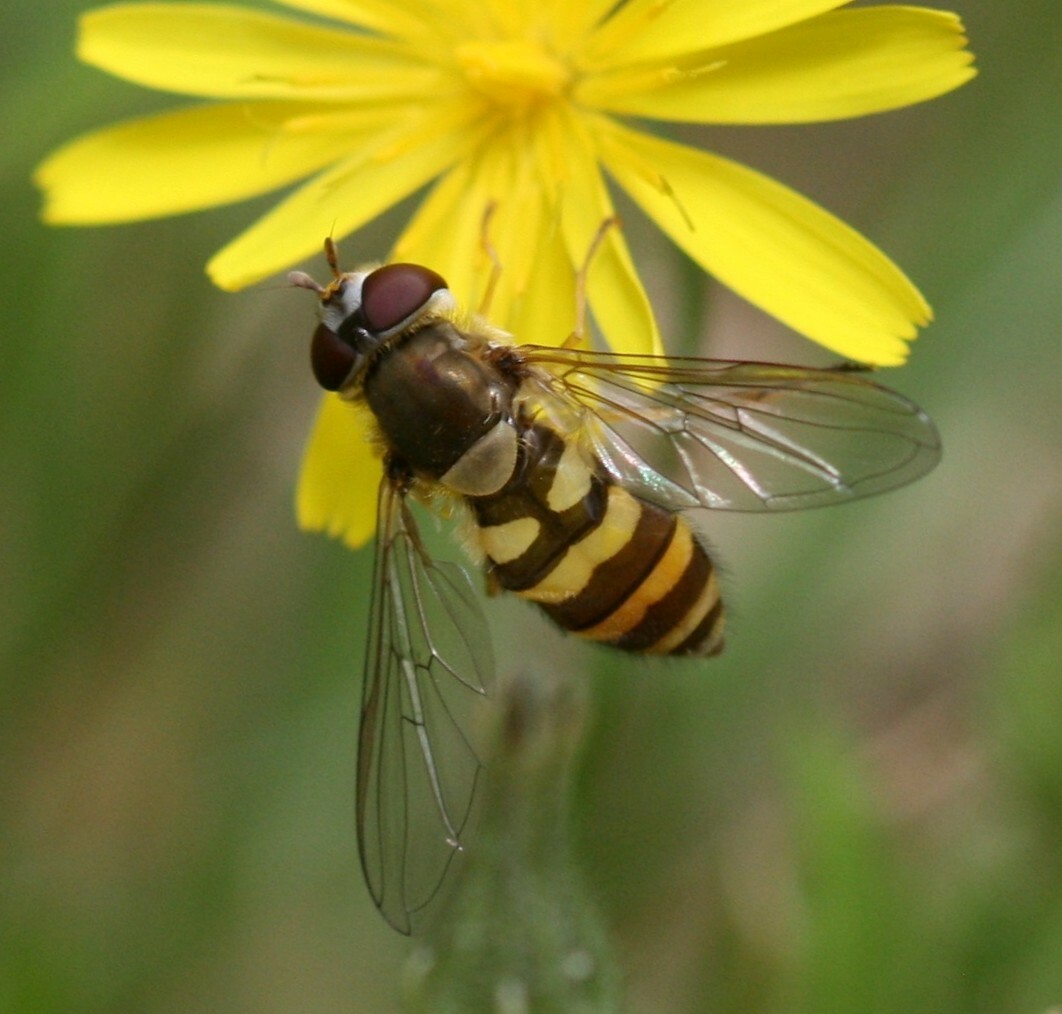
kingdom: Animalia
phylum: Arthropoda
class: Insecta
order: Diptera
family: Syrphidae
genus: Syrphus
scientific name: Syrphus
